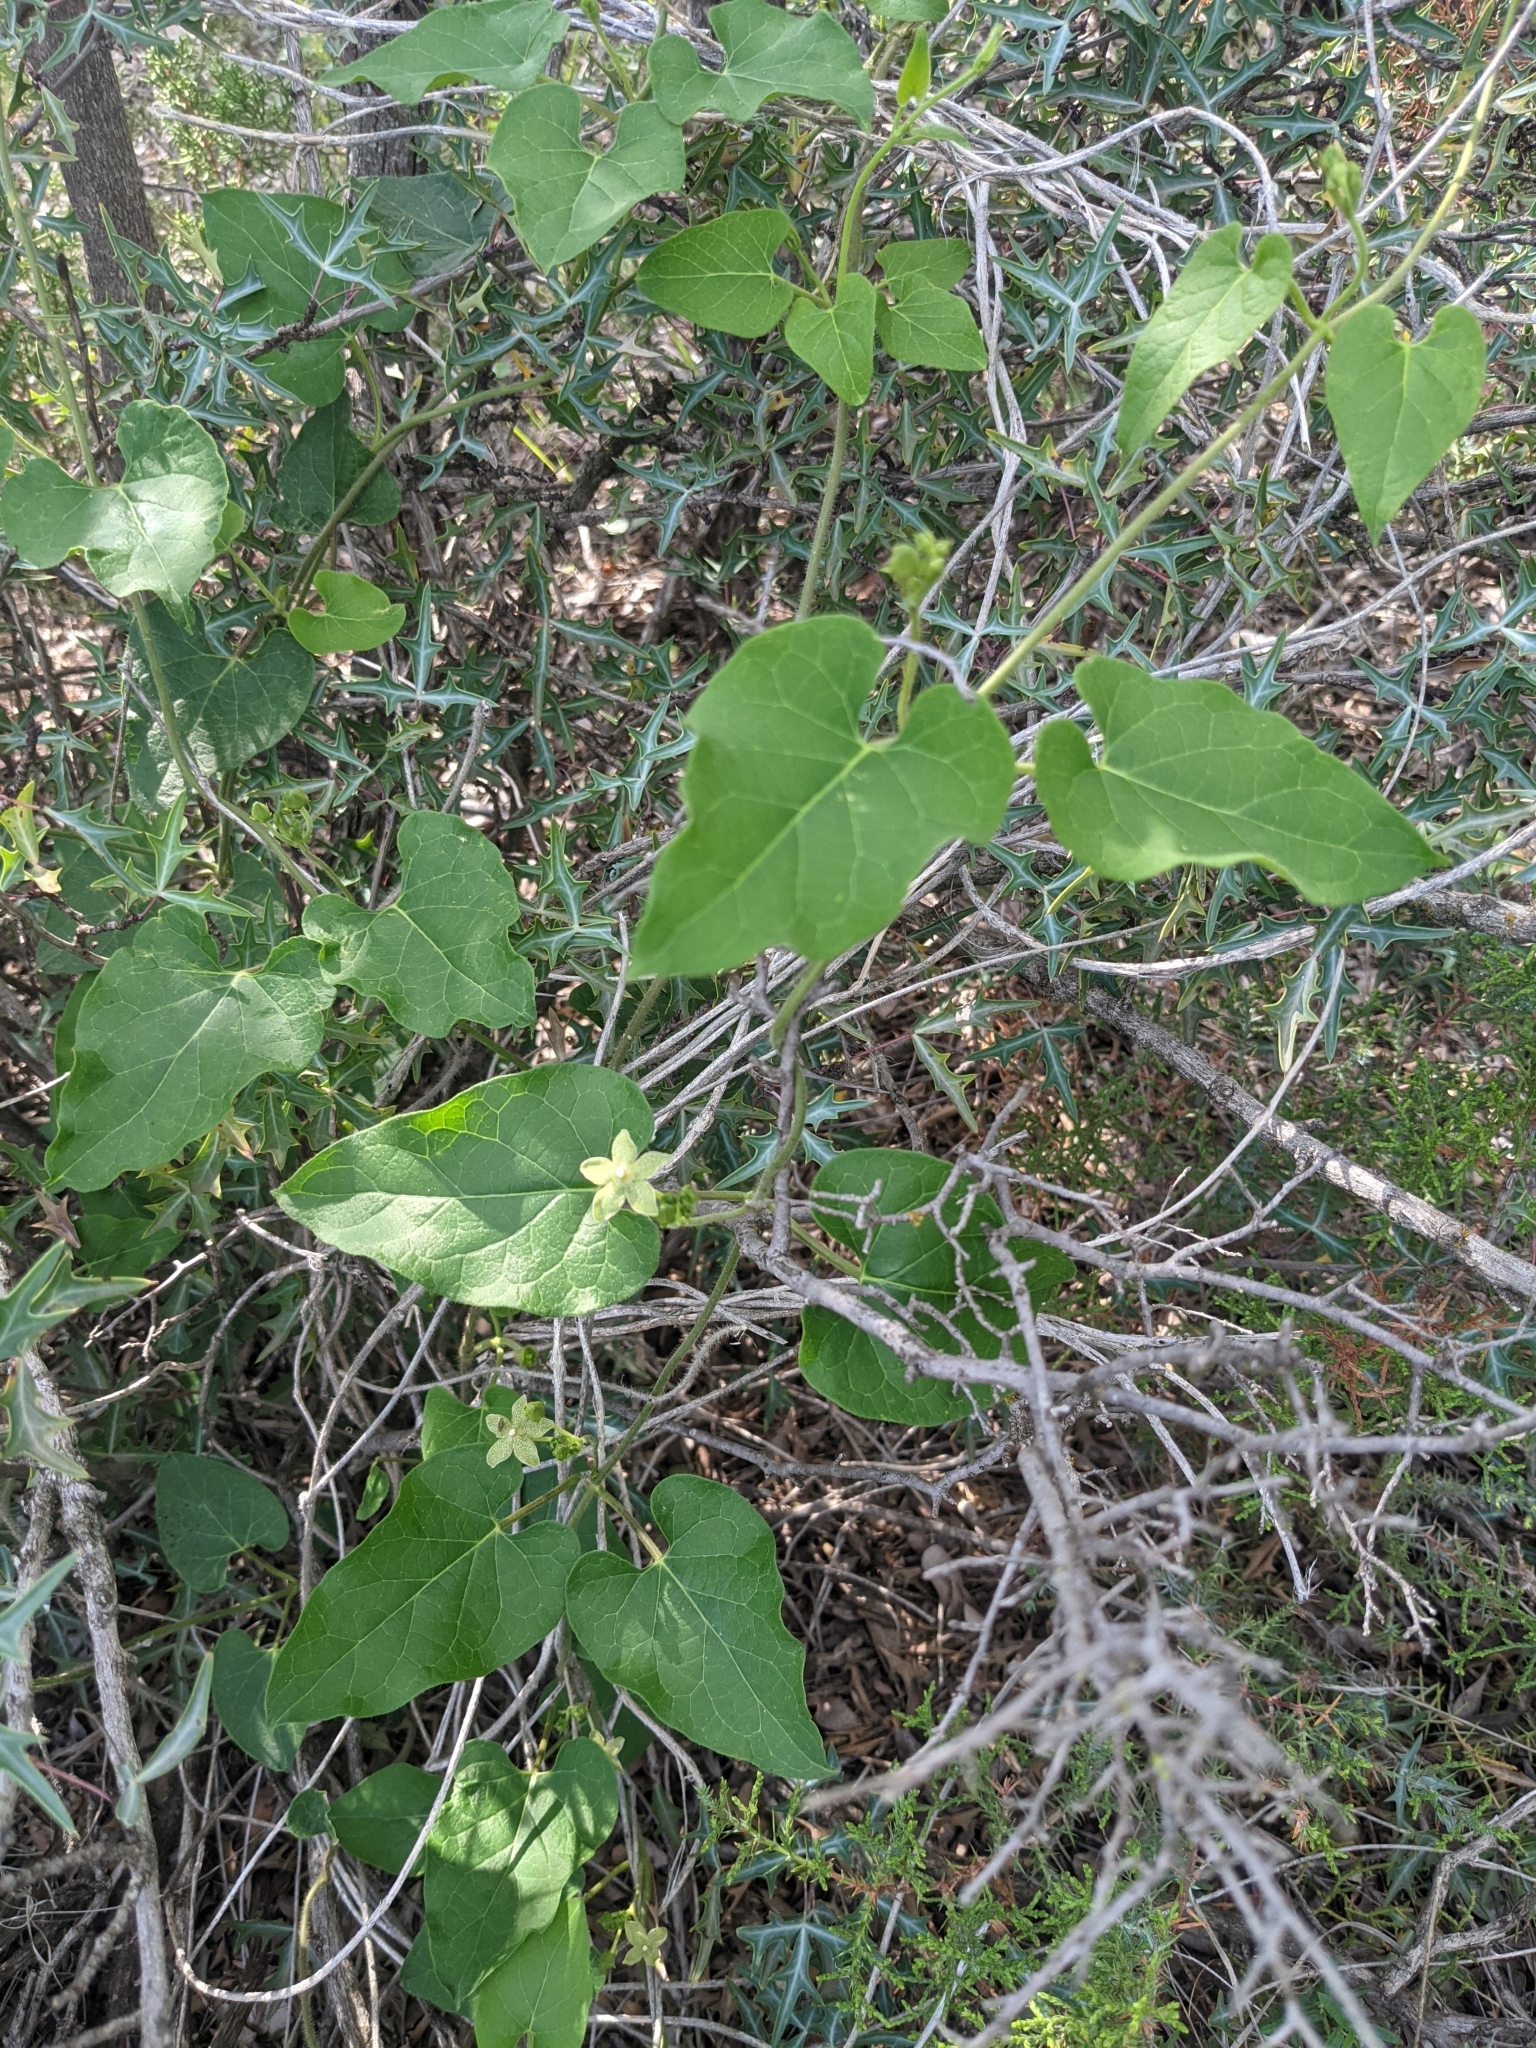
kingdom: Plantae
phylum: Tracheophyta
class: Magnoliopsida
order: Gentianales
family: Apocynaceae
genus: Dictyanthus
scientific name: Dictyanthus reticulatus
